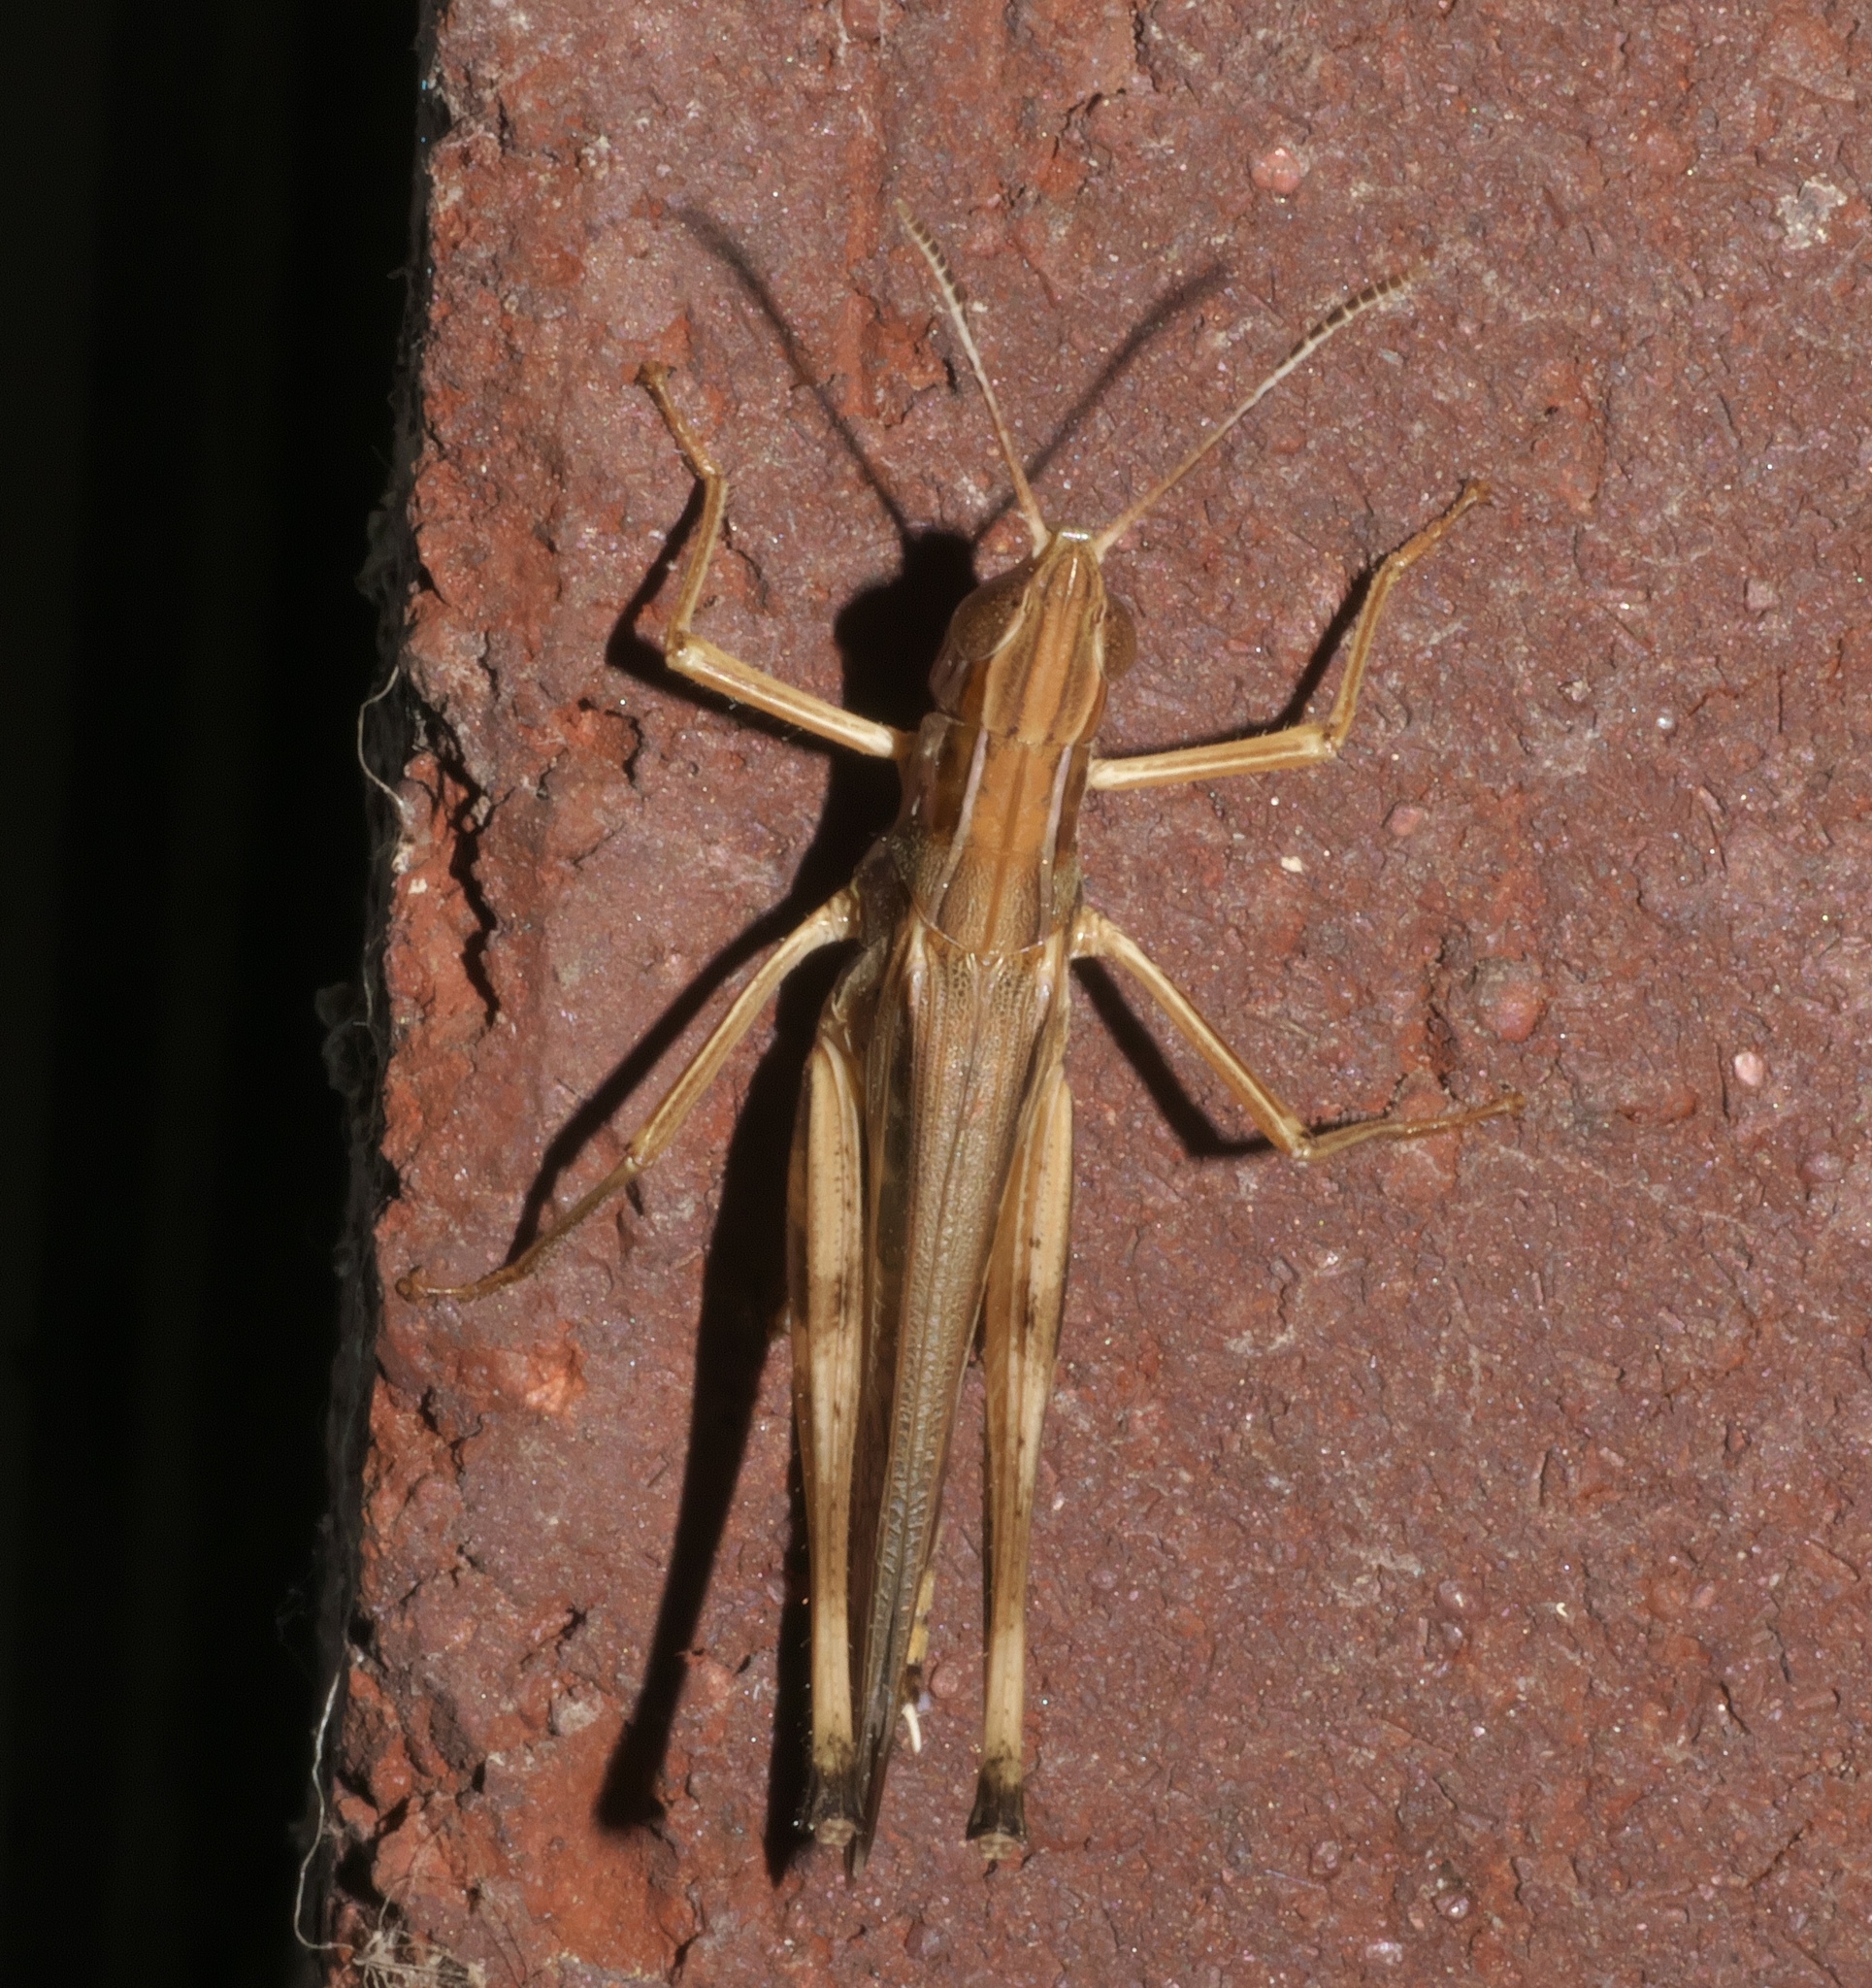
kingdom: Animalia
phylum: Arthropoda
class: Insecta
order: Orthoptera
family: Acrididae
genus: Syrbula
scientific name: Syrbula admirabilis
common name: Handsome grasshopper
